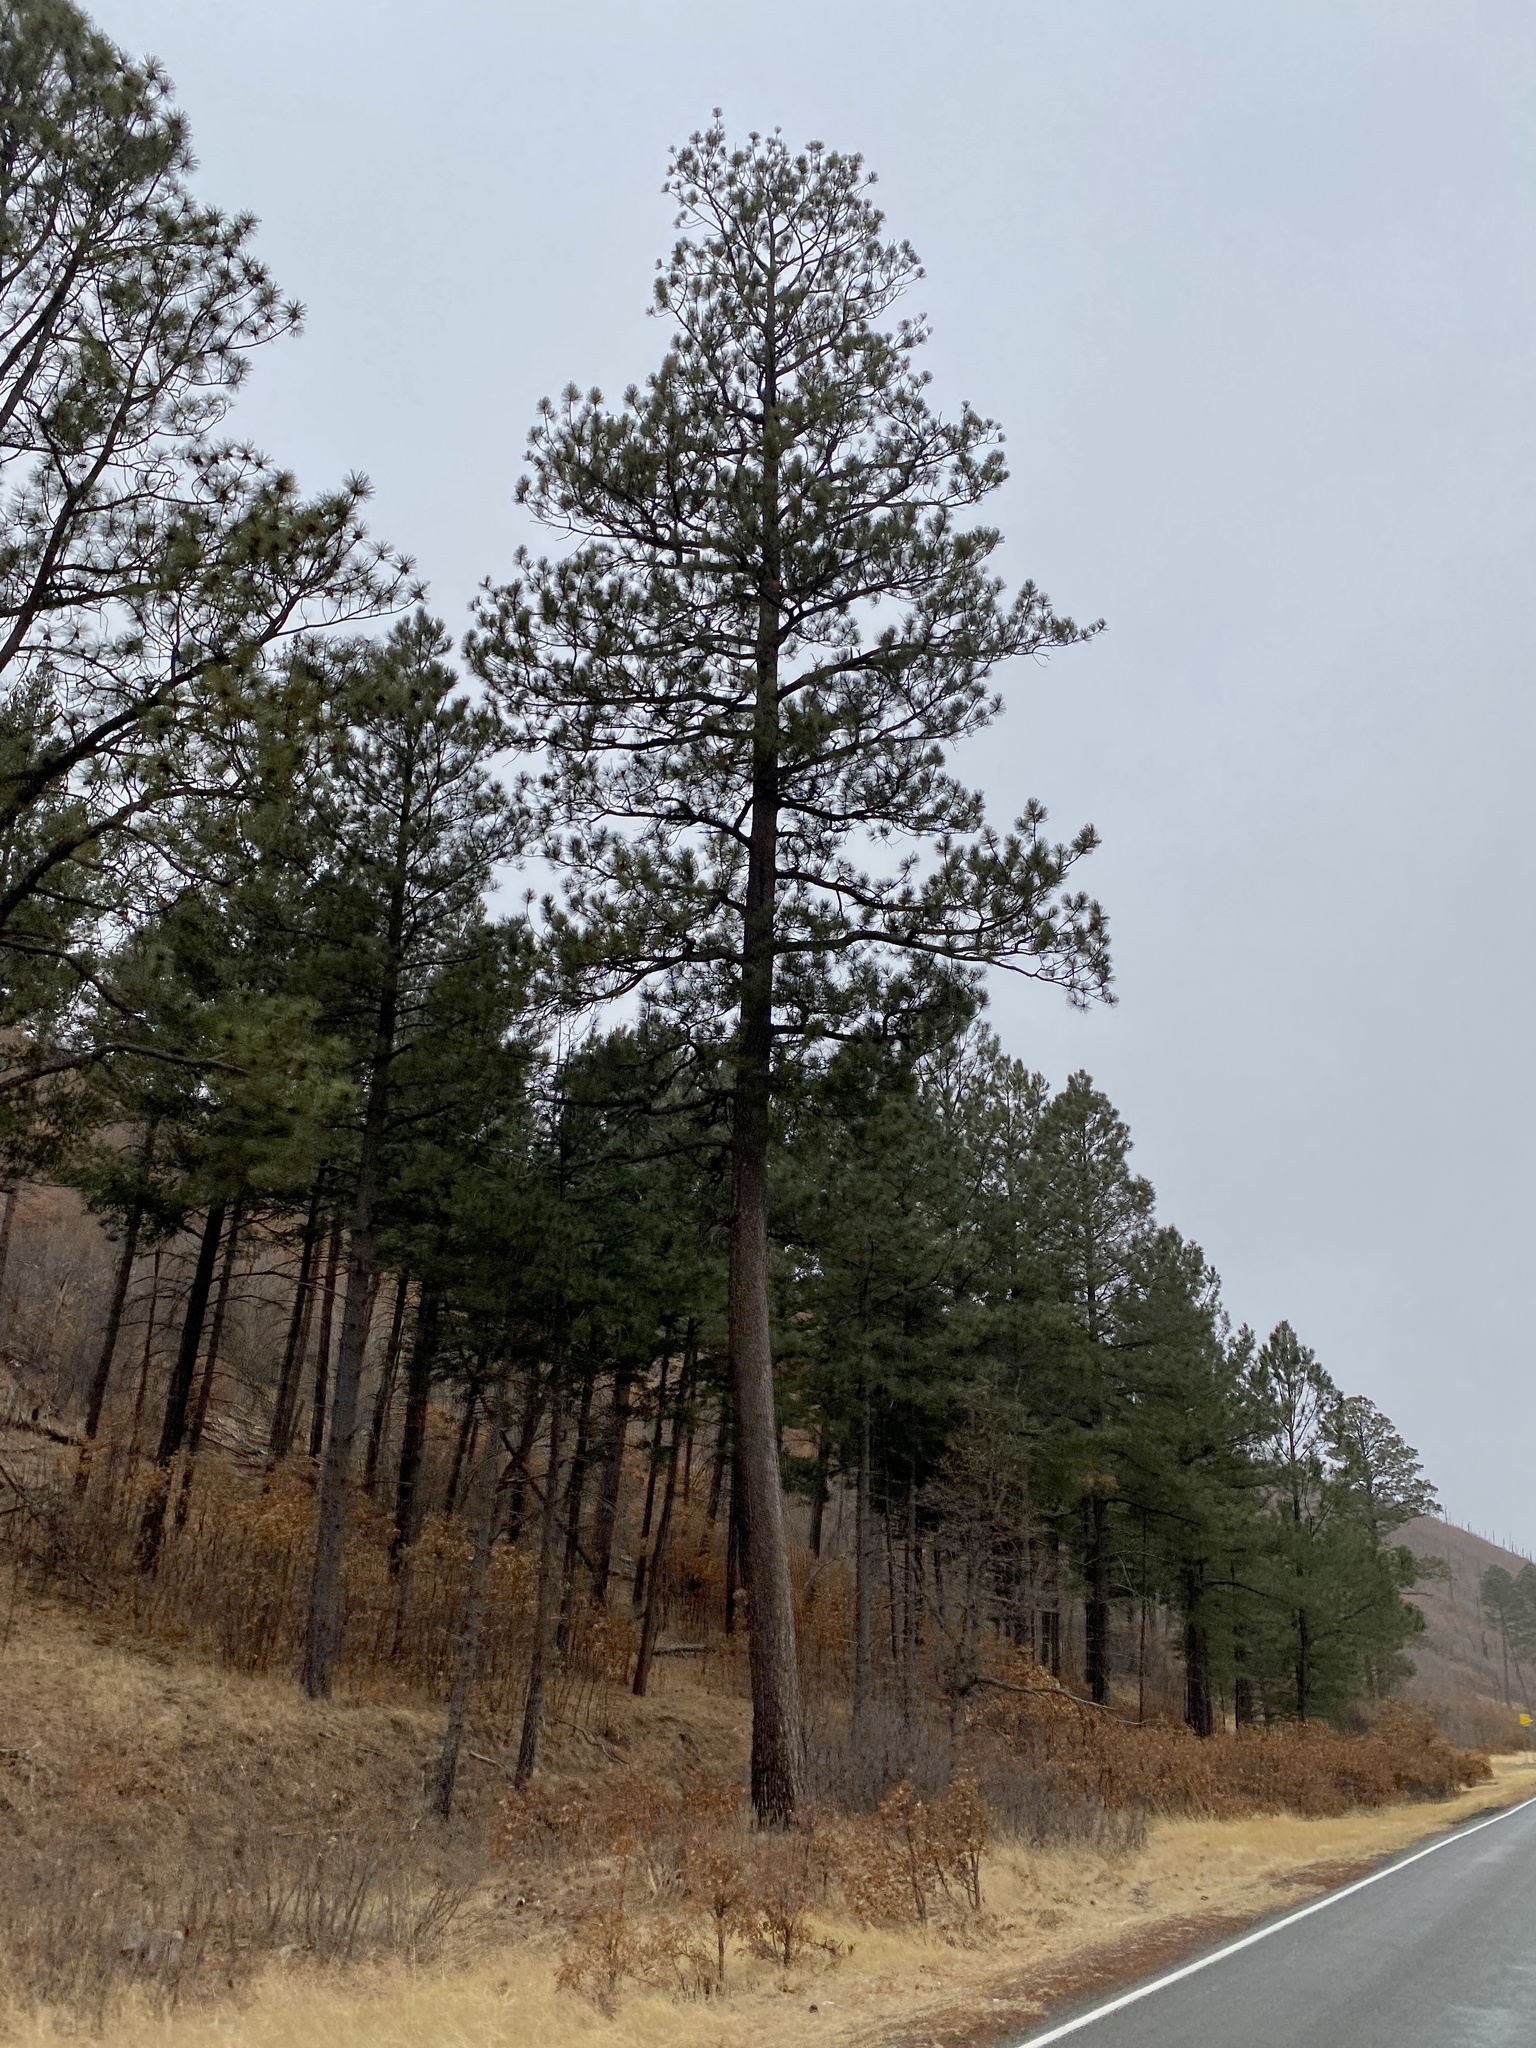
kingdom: Plantae
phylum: Tracheophyta
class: Pinopsida
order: Pinales
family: Pinaceae
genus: Pinus
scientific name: Pinus ponderosa
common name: Western yellow-pine
